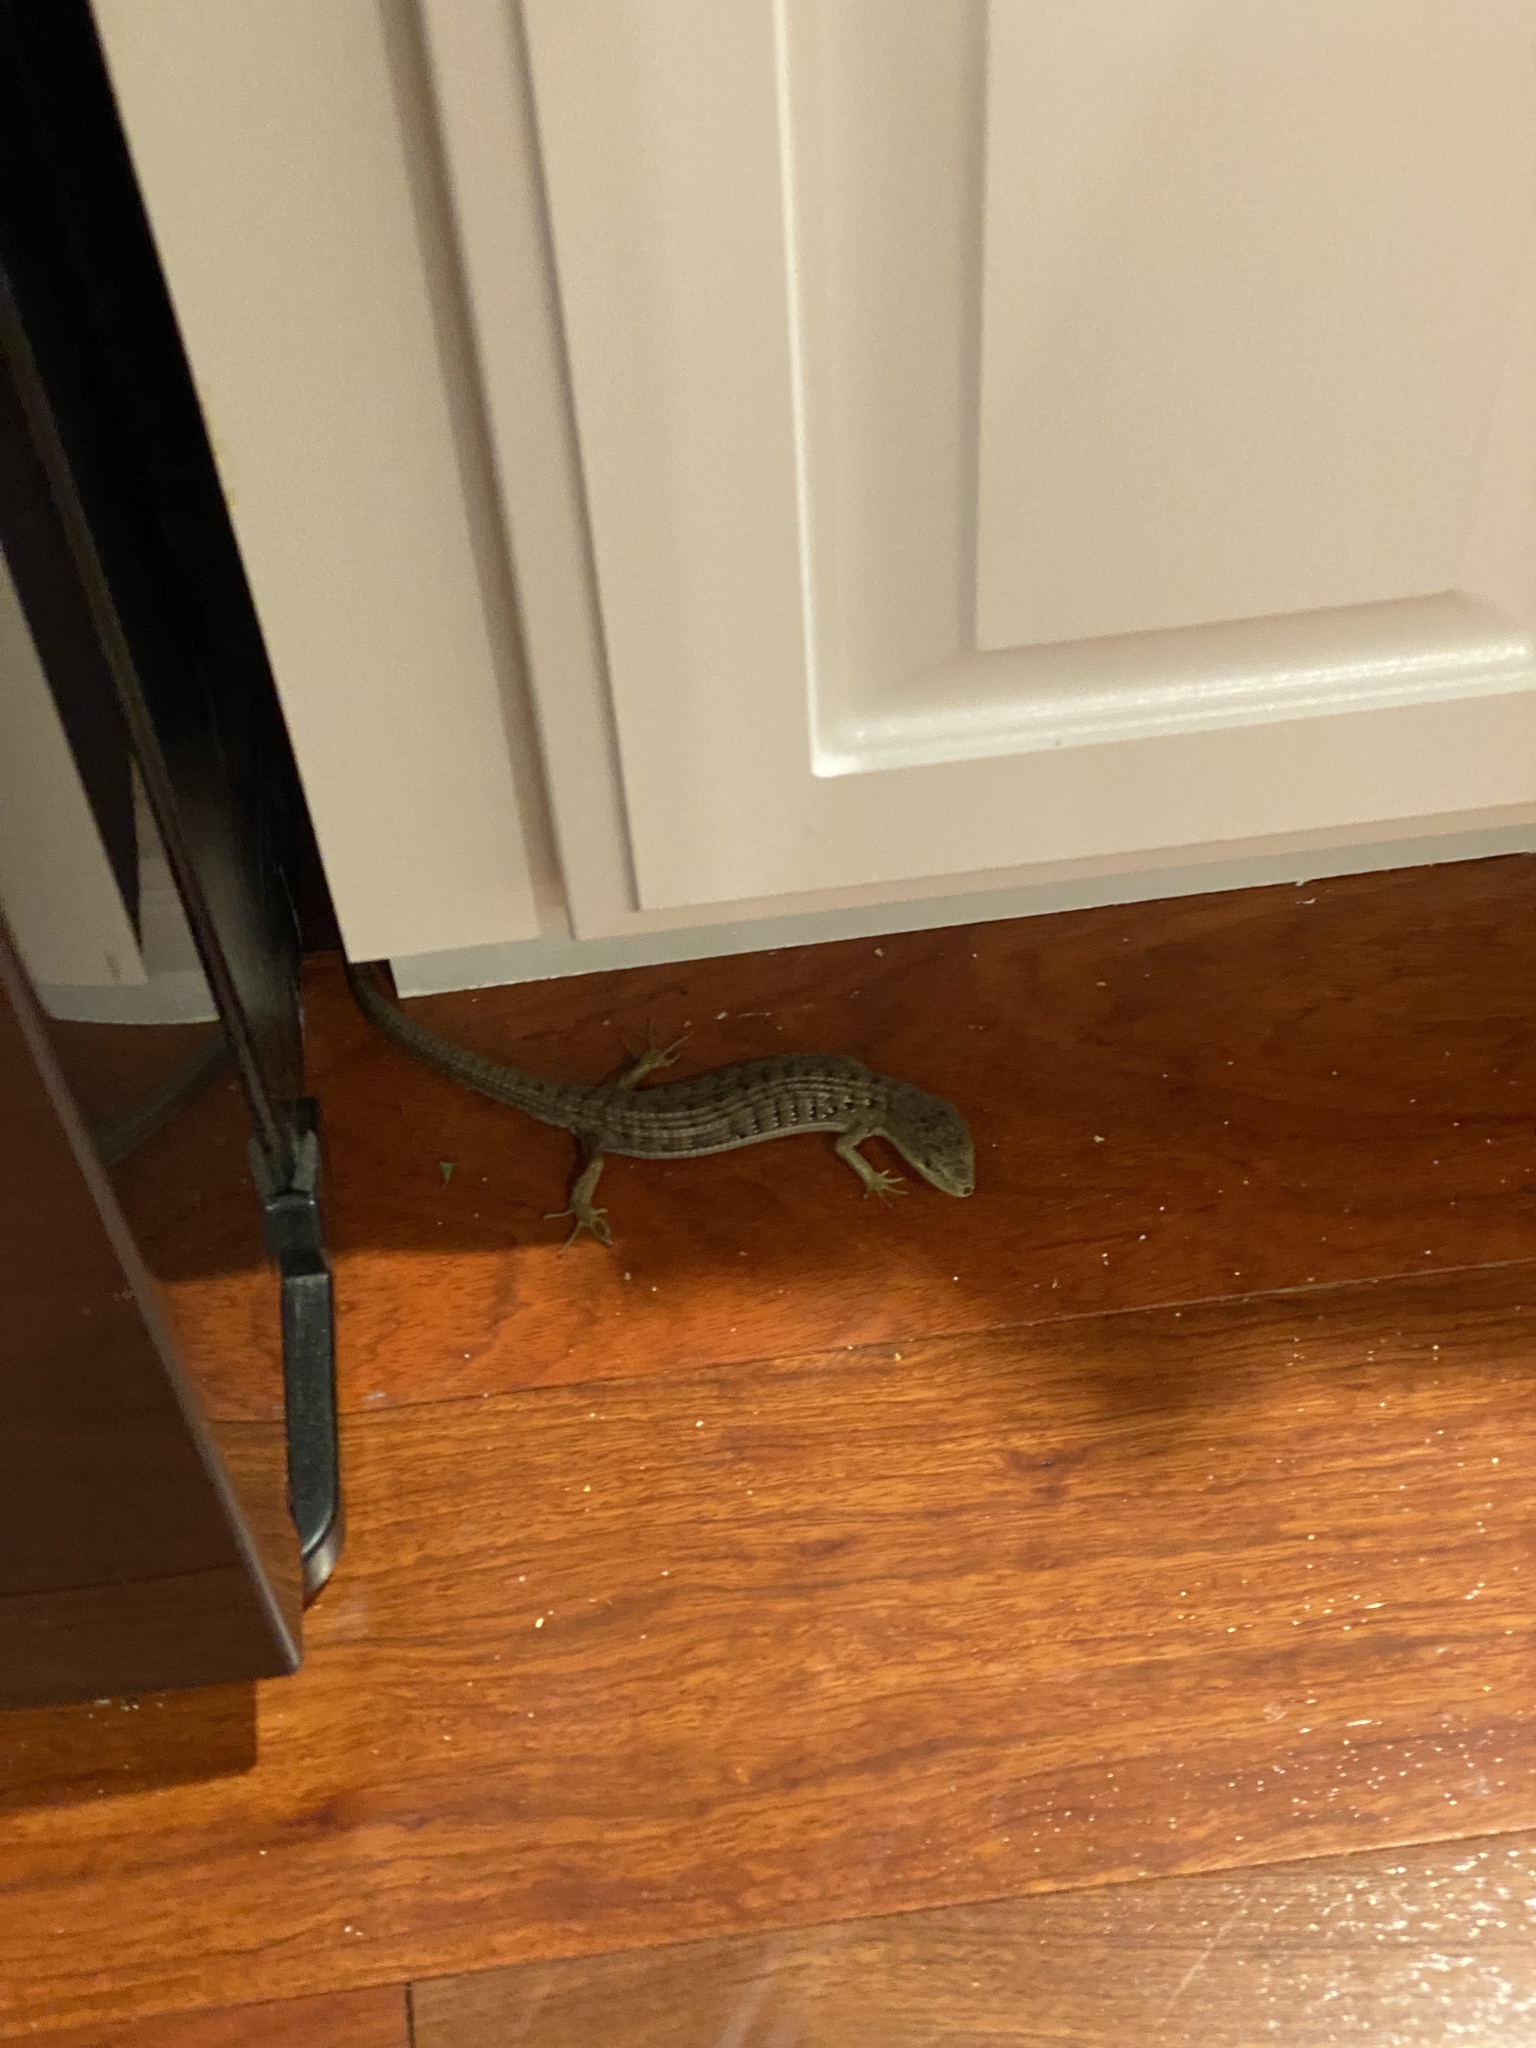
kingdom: Animalia
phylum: Chordata
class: Squamata
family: Anguidae
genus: Elgaria
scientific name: Elgaria multicarinata
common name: Southern alligator lizard
